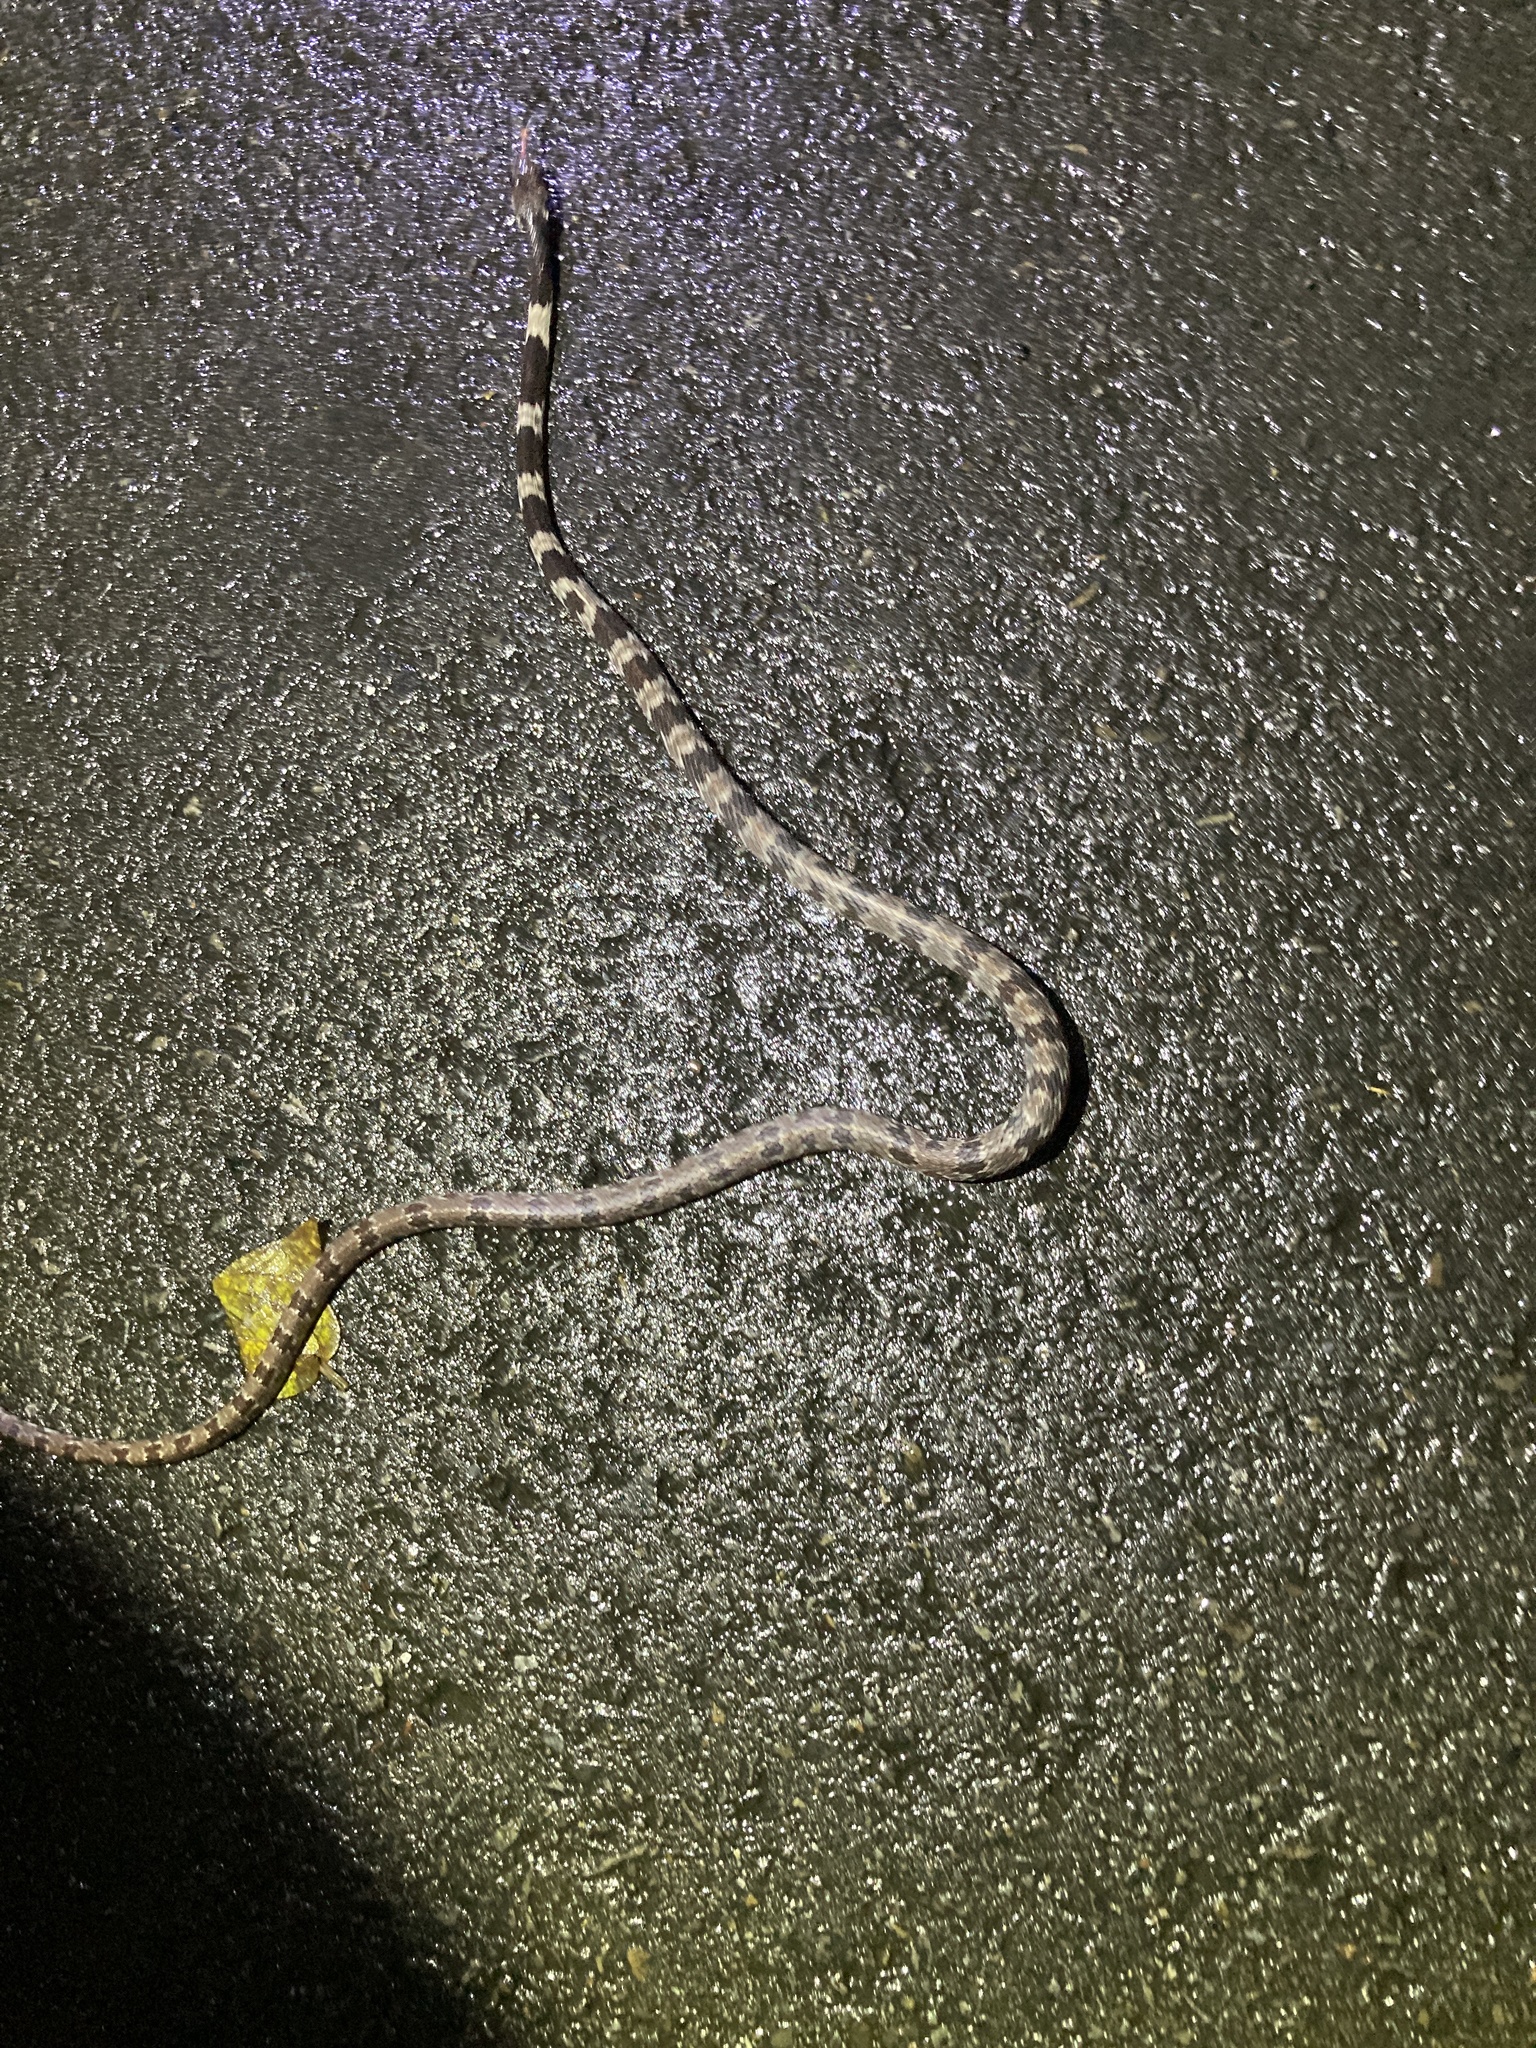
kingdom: Animalia
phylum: Chordata
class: Squamata
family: Colubridae
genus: Lycodon
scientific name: Lycodon ruhstrati
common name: Rushstrat's wolf snake
